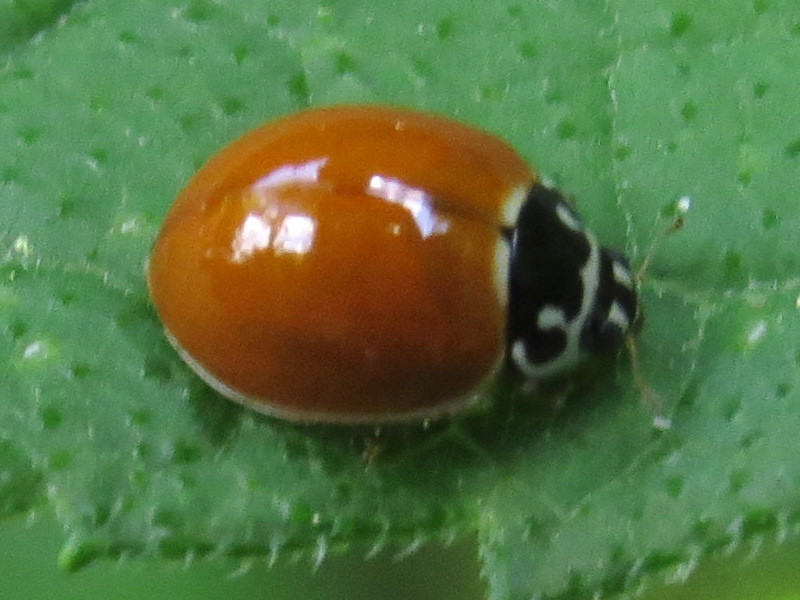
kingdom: Animalia
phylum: Arthropoda
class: Insecta
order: Coleoptera
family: Coccinellidae
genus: Cycloneda
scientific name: Cycloneda munda
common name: Polished lady beetle
